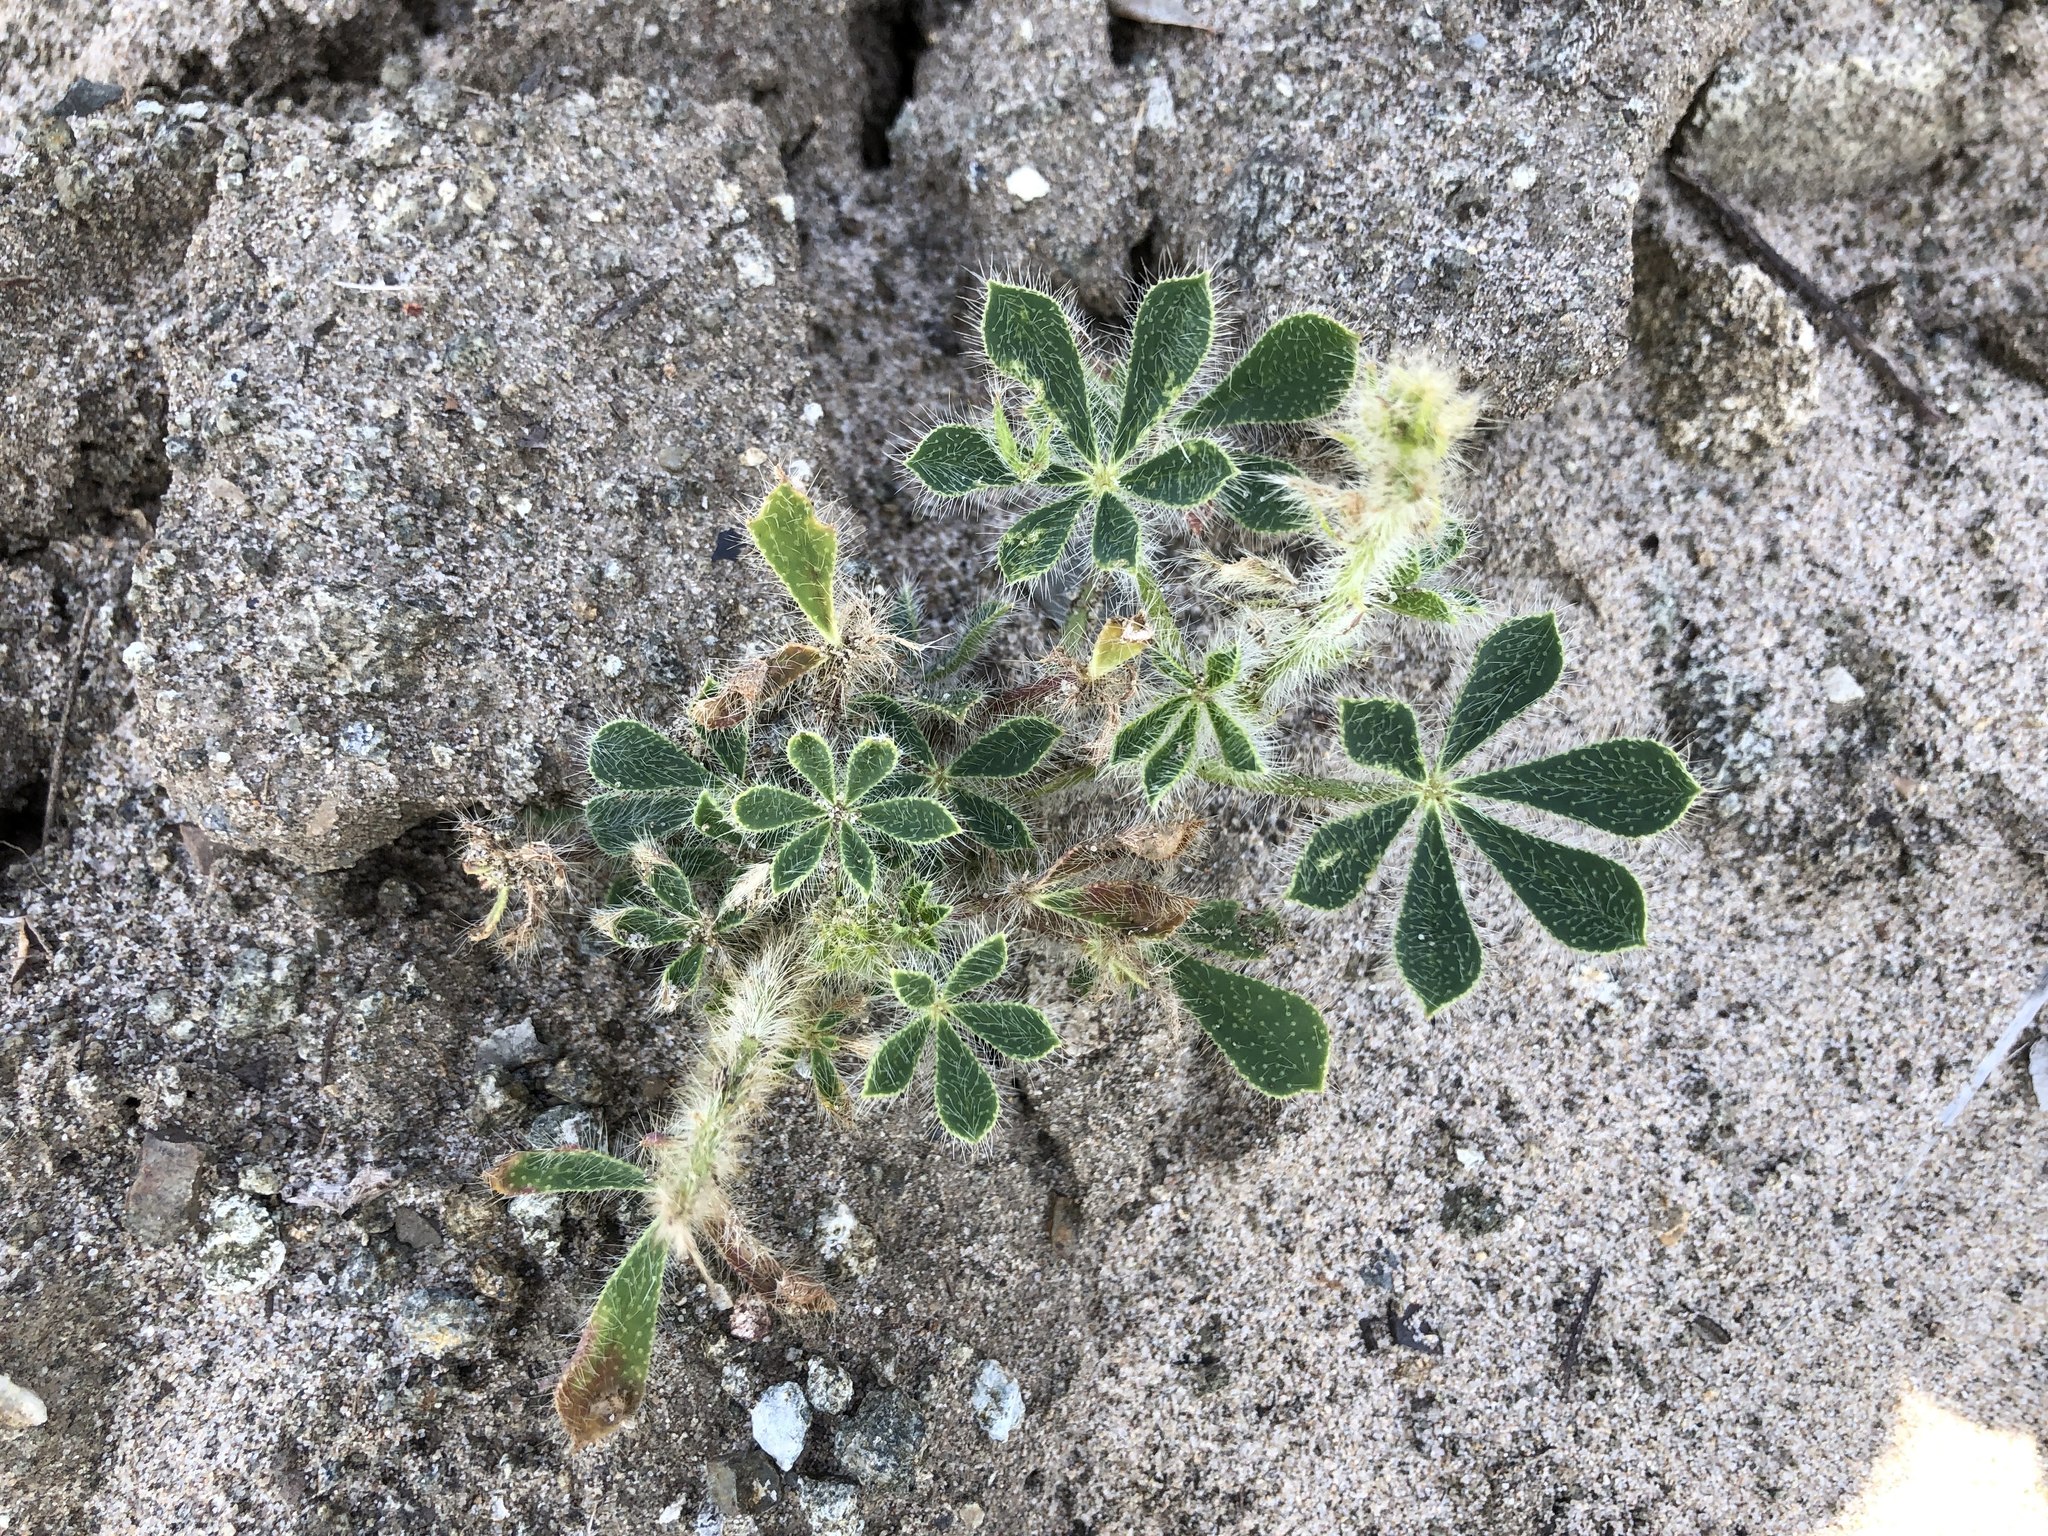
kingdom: Plantae
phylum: Tracheophyta
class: Magnoliopsida
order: Fabales
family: Fabaceae
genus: Lupinus
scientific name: Lupinus hirsutissimus
